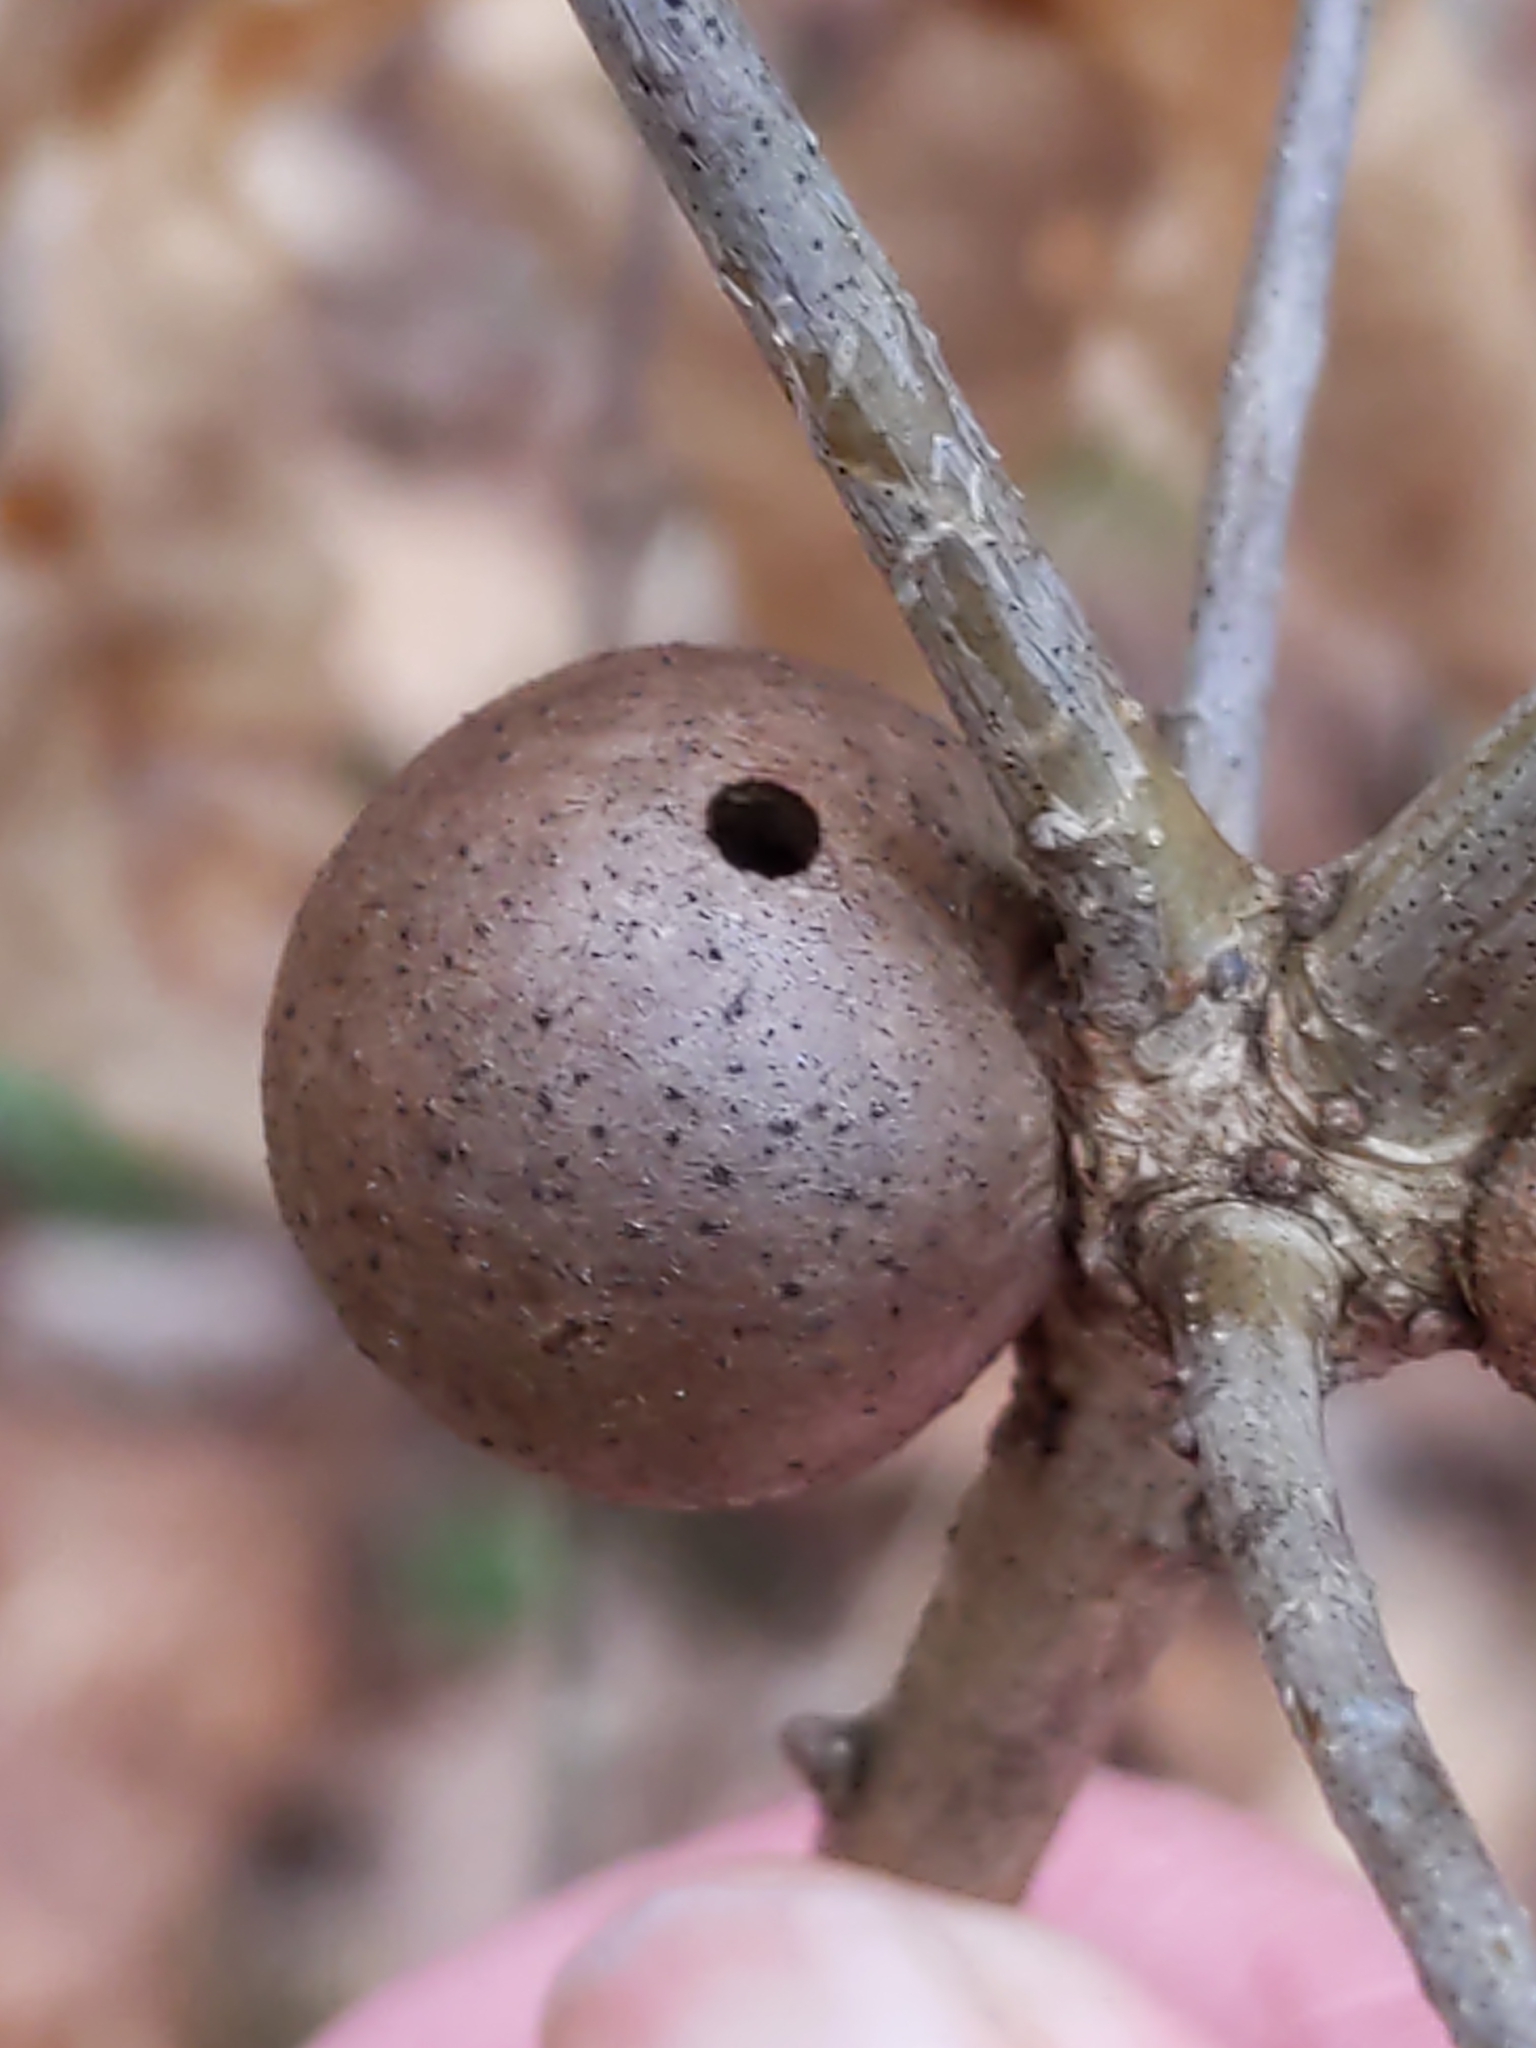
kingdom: Animalia
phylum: Arthropoda
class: Insecta
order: Hymenoptera
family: Cynipidae
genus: Disholcaspis
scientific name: Disholcaspis quercusglobulus
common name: Round bullet gall wasp
